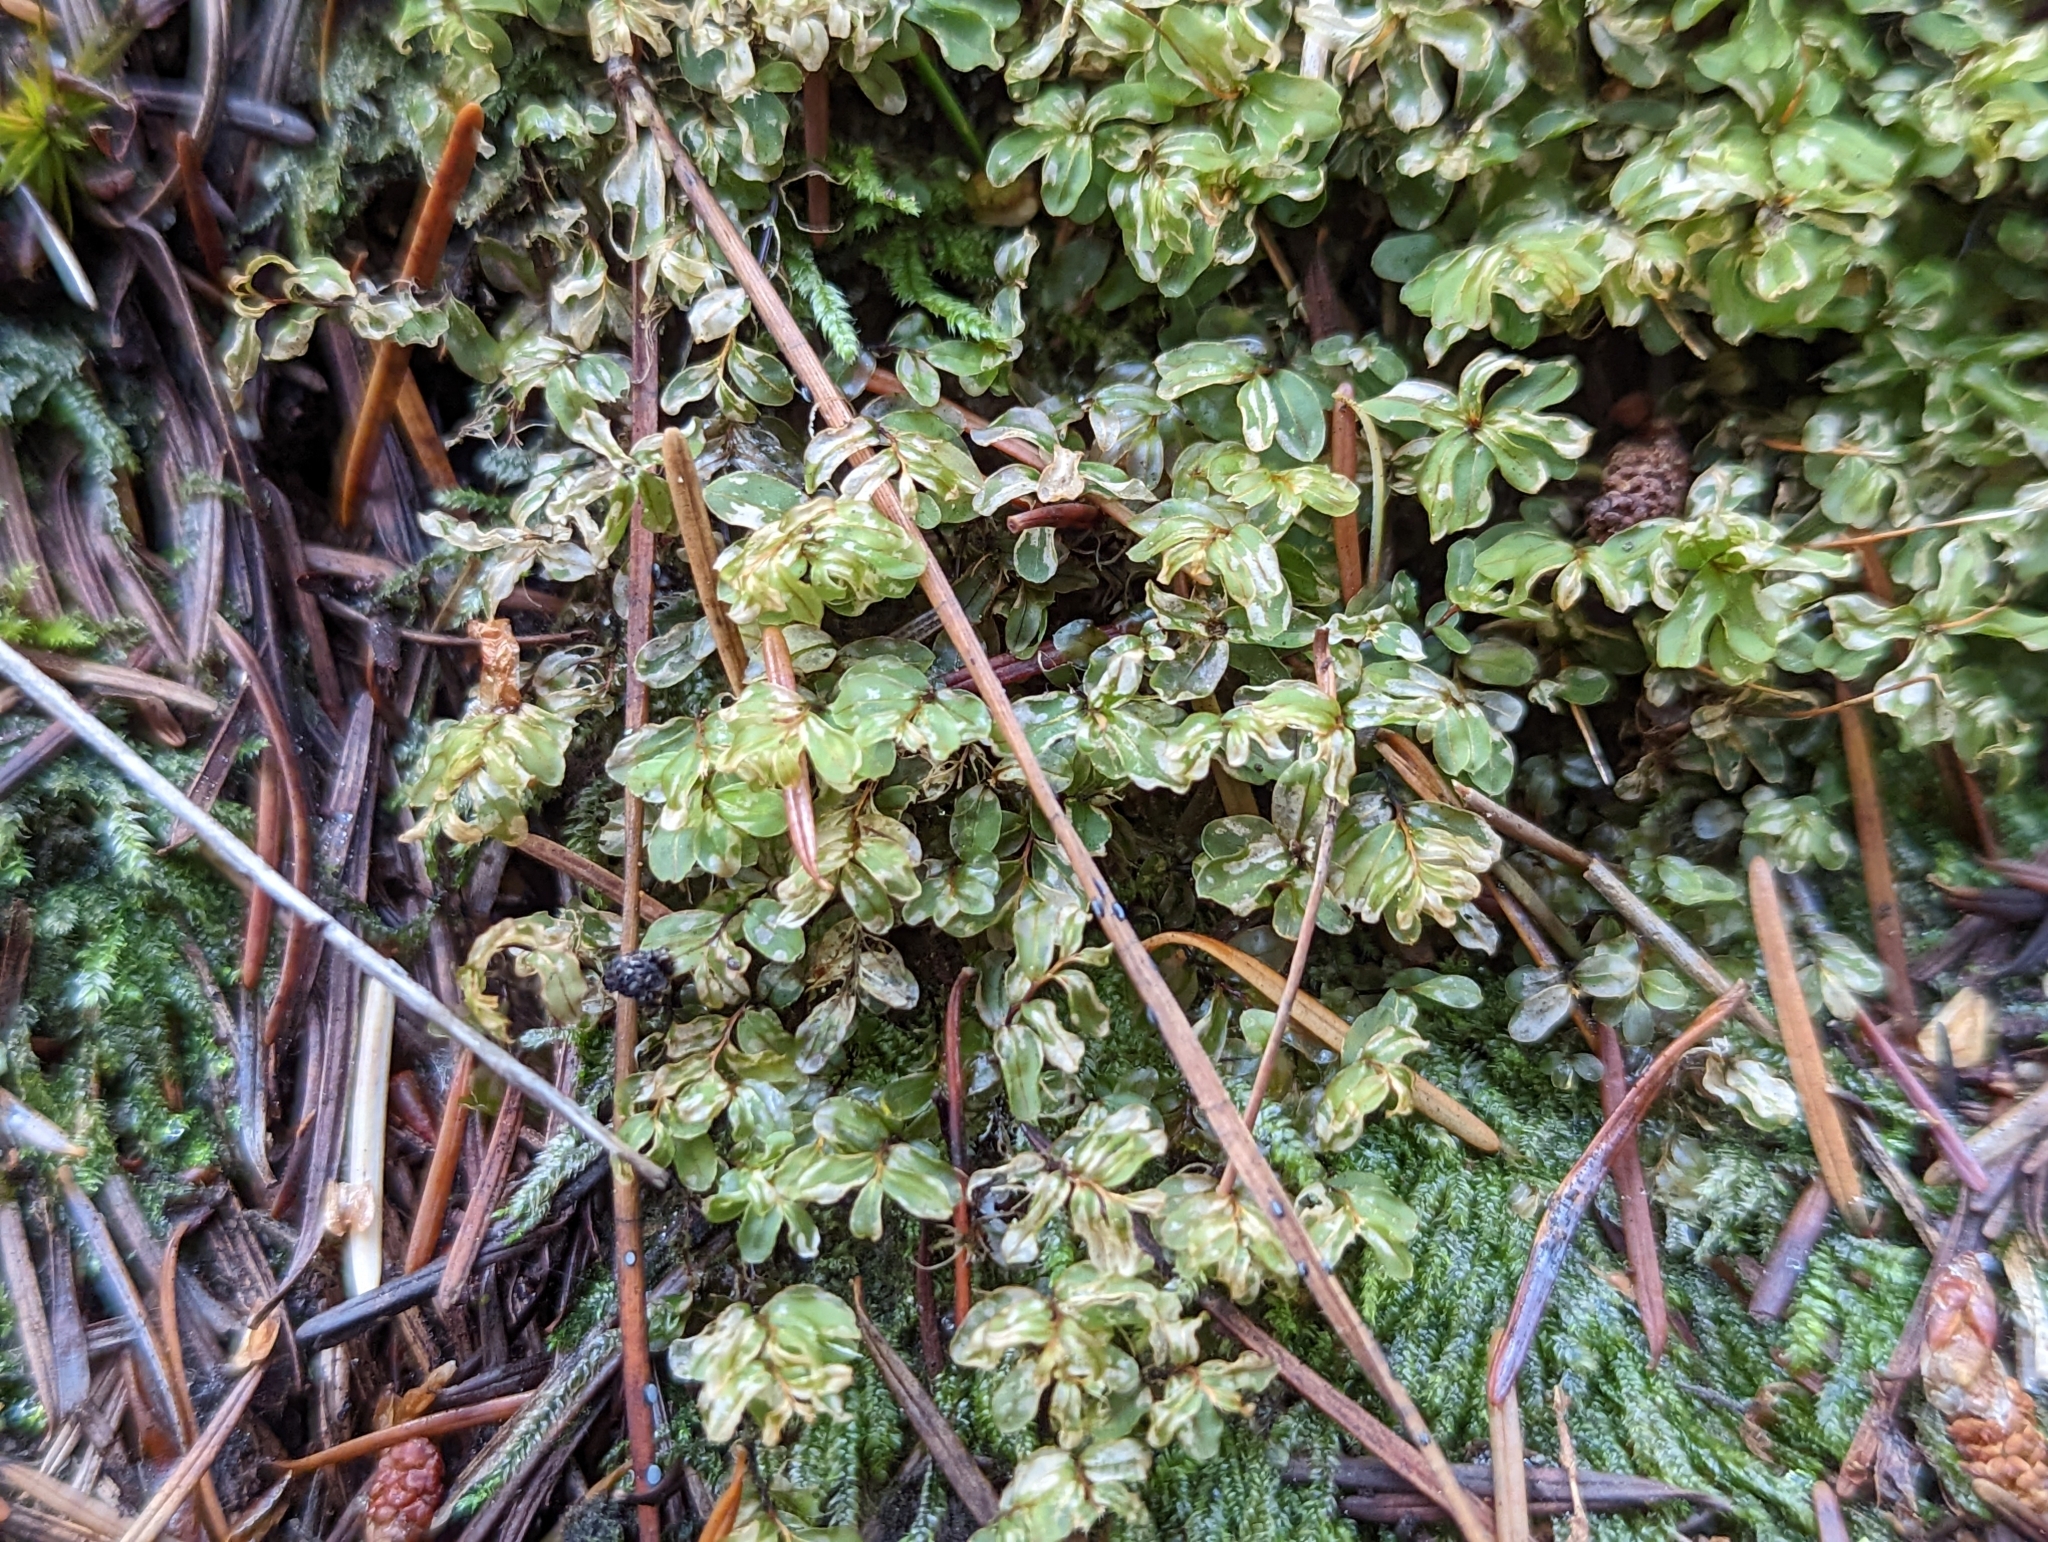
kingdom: Plantae
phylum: Bryophyta
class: Bryopsida
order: Bryales
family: Mniaceae
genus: Rhizomnium
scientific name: Rhizomnium glabrescens
